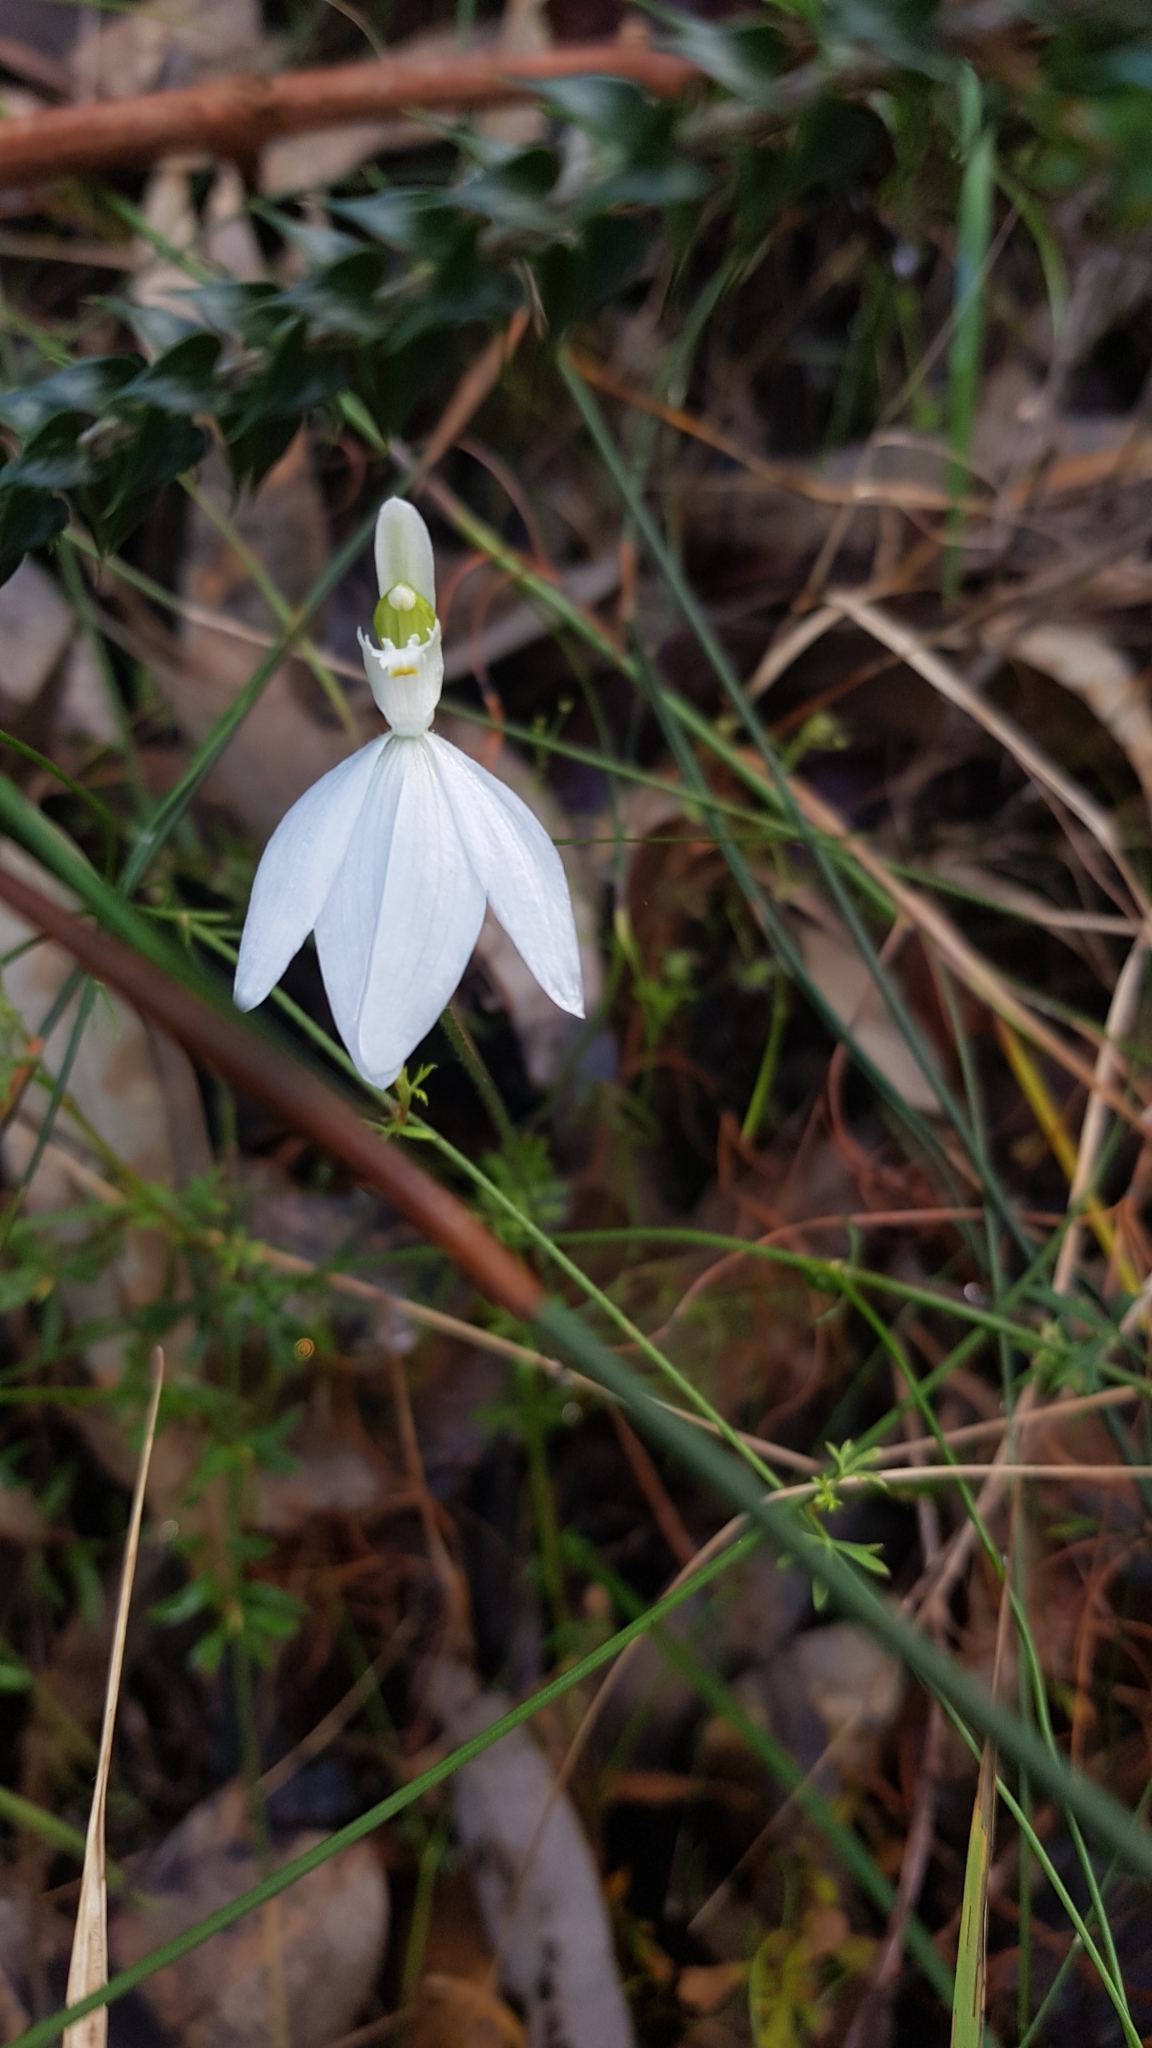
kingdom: Plantae
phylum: Tracheophyta
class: Liliopsida
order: Asparagales
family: Orchidaceae
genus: Caladenia
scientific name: Caladenia catenata
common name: White caladenia
